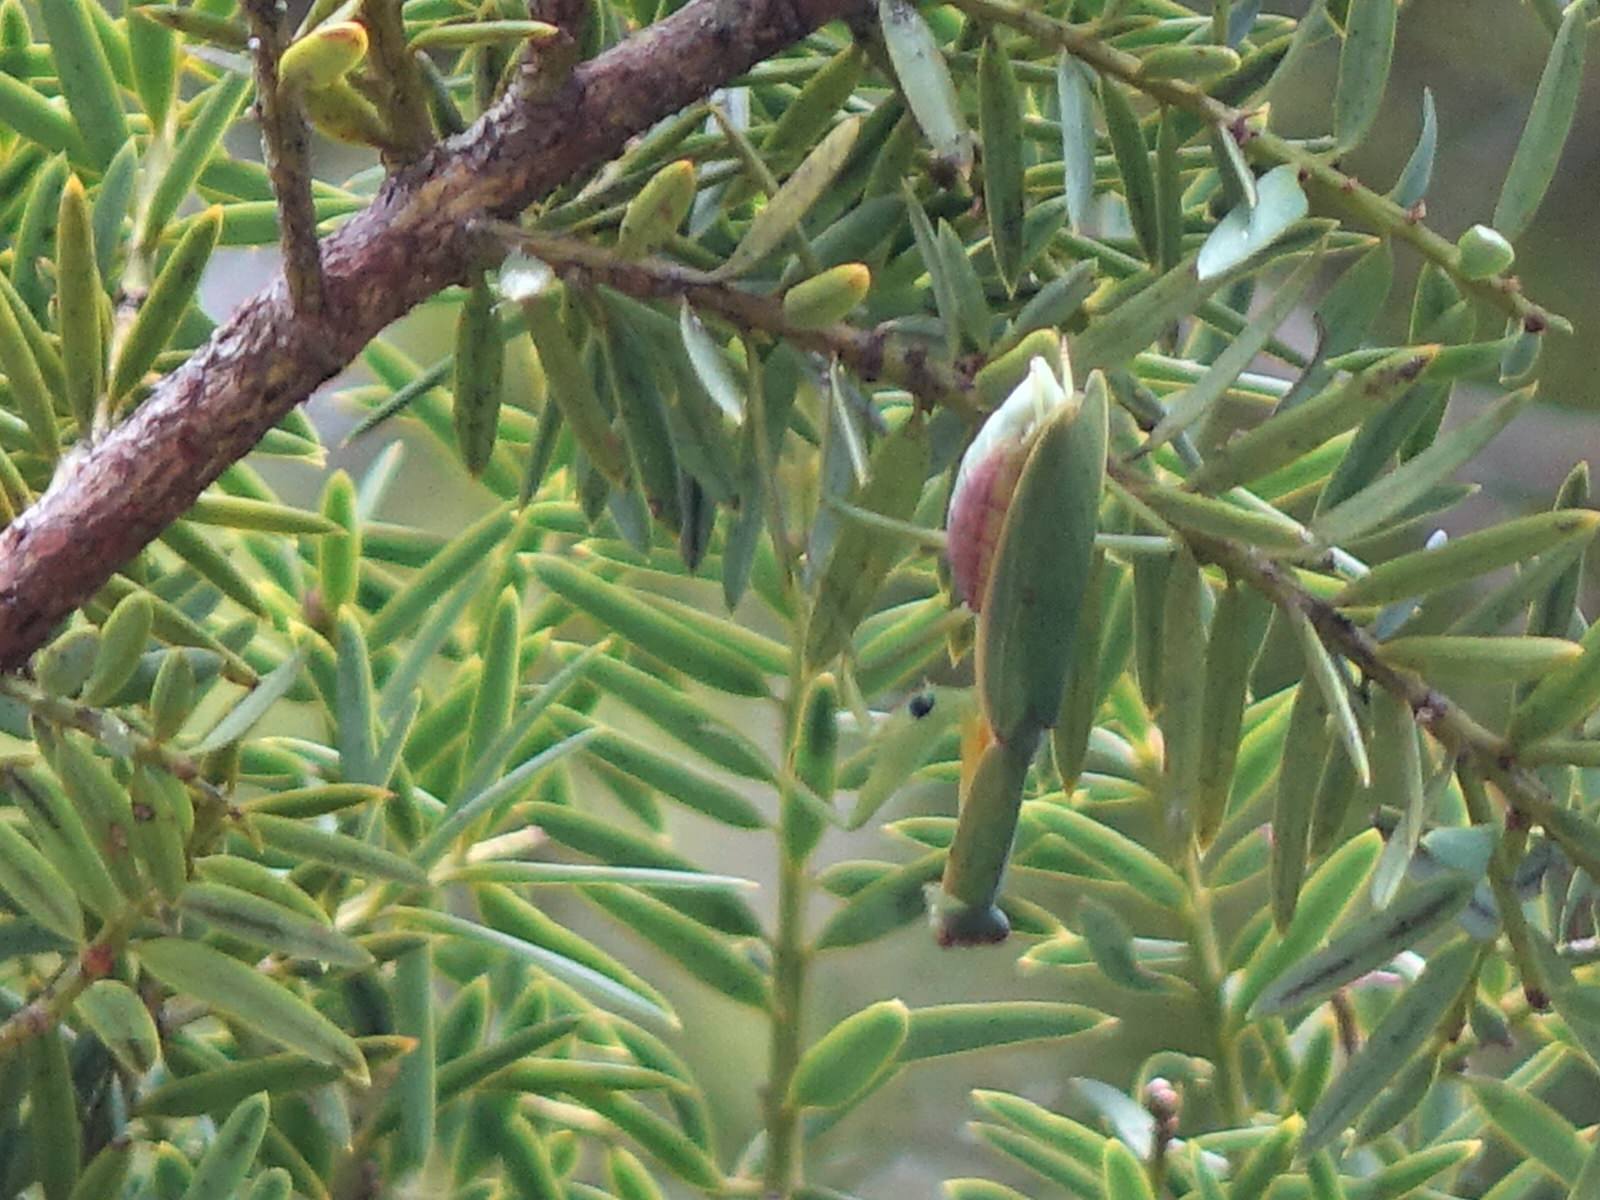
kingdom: Animalia
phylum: Arthropoda
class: Insecta
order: Mantodea
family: Mantidae
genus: Orthodera
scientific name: Orthodera novaezealandiae
